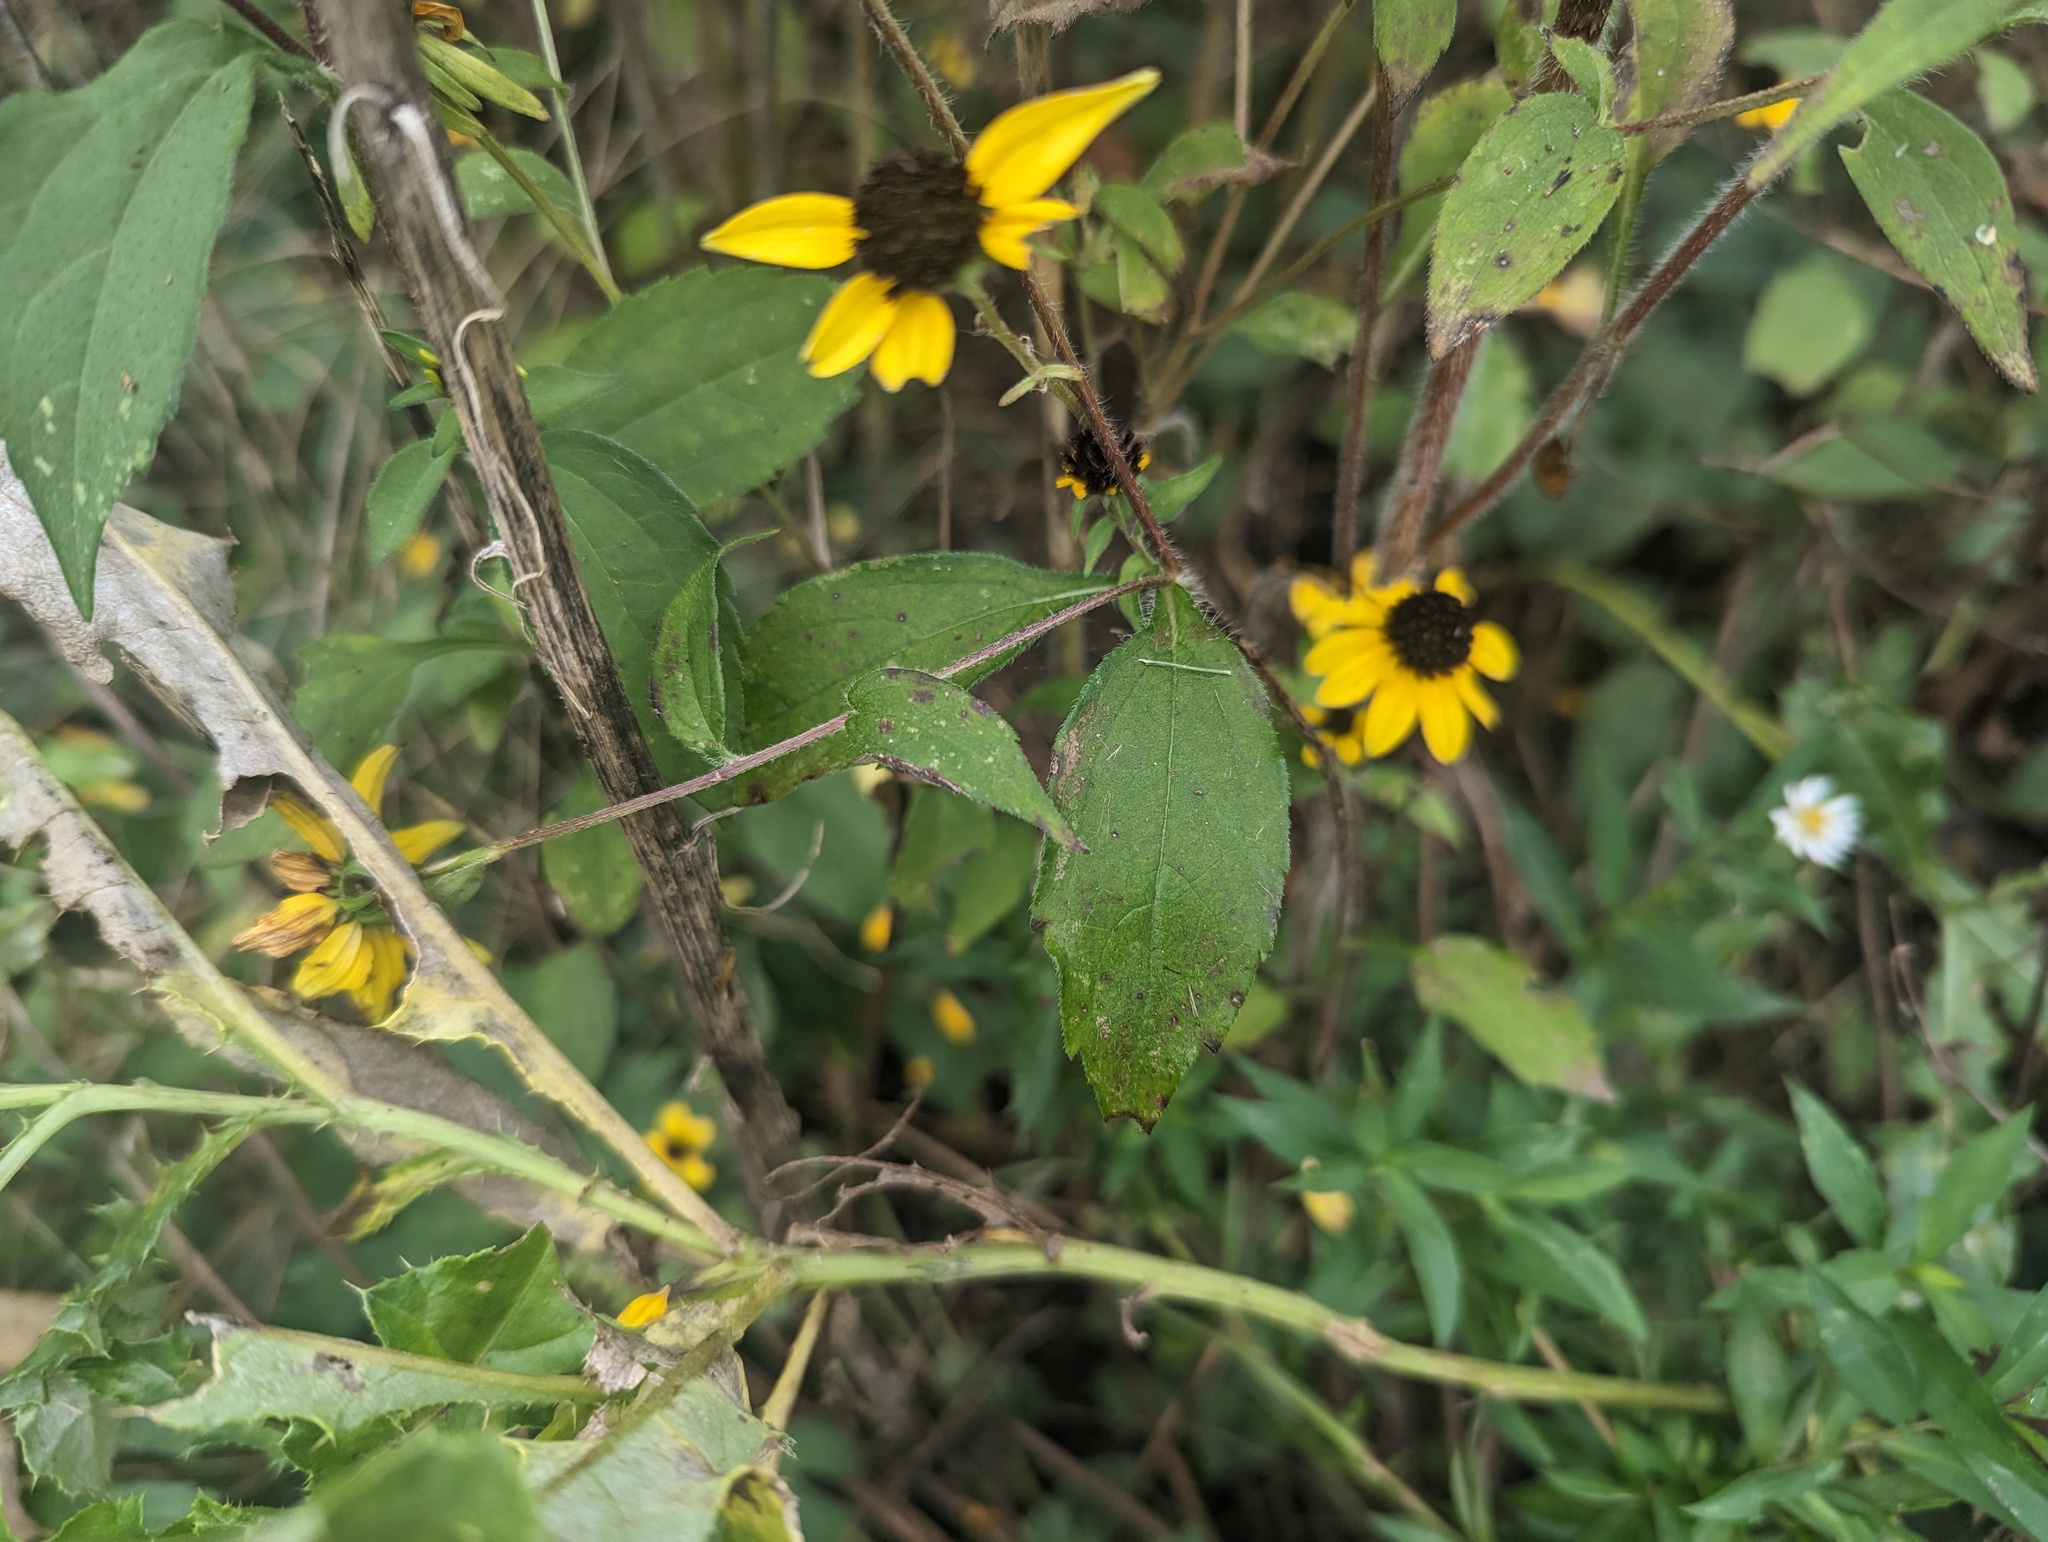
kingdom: Plantae
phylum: Tracheophyta
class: Magnoliopsida
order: Asterales
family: Asteraceae
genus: Rudbeckia
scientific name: Rudbeckia triloba
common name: Thin-leaved coneflower
